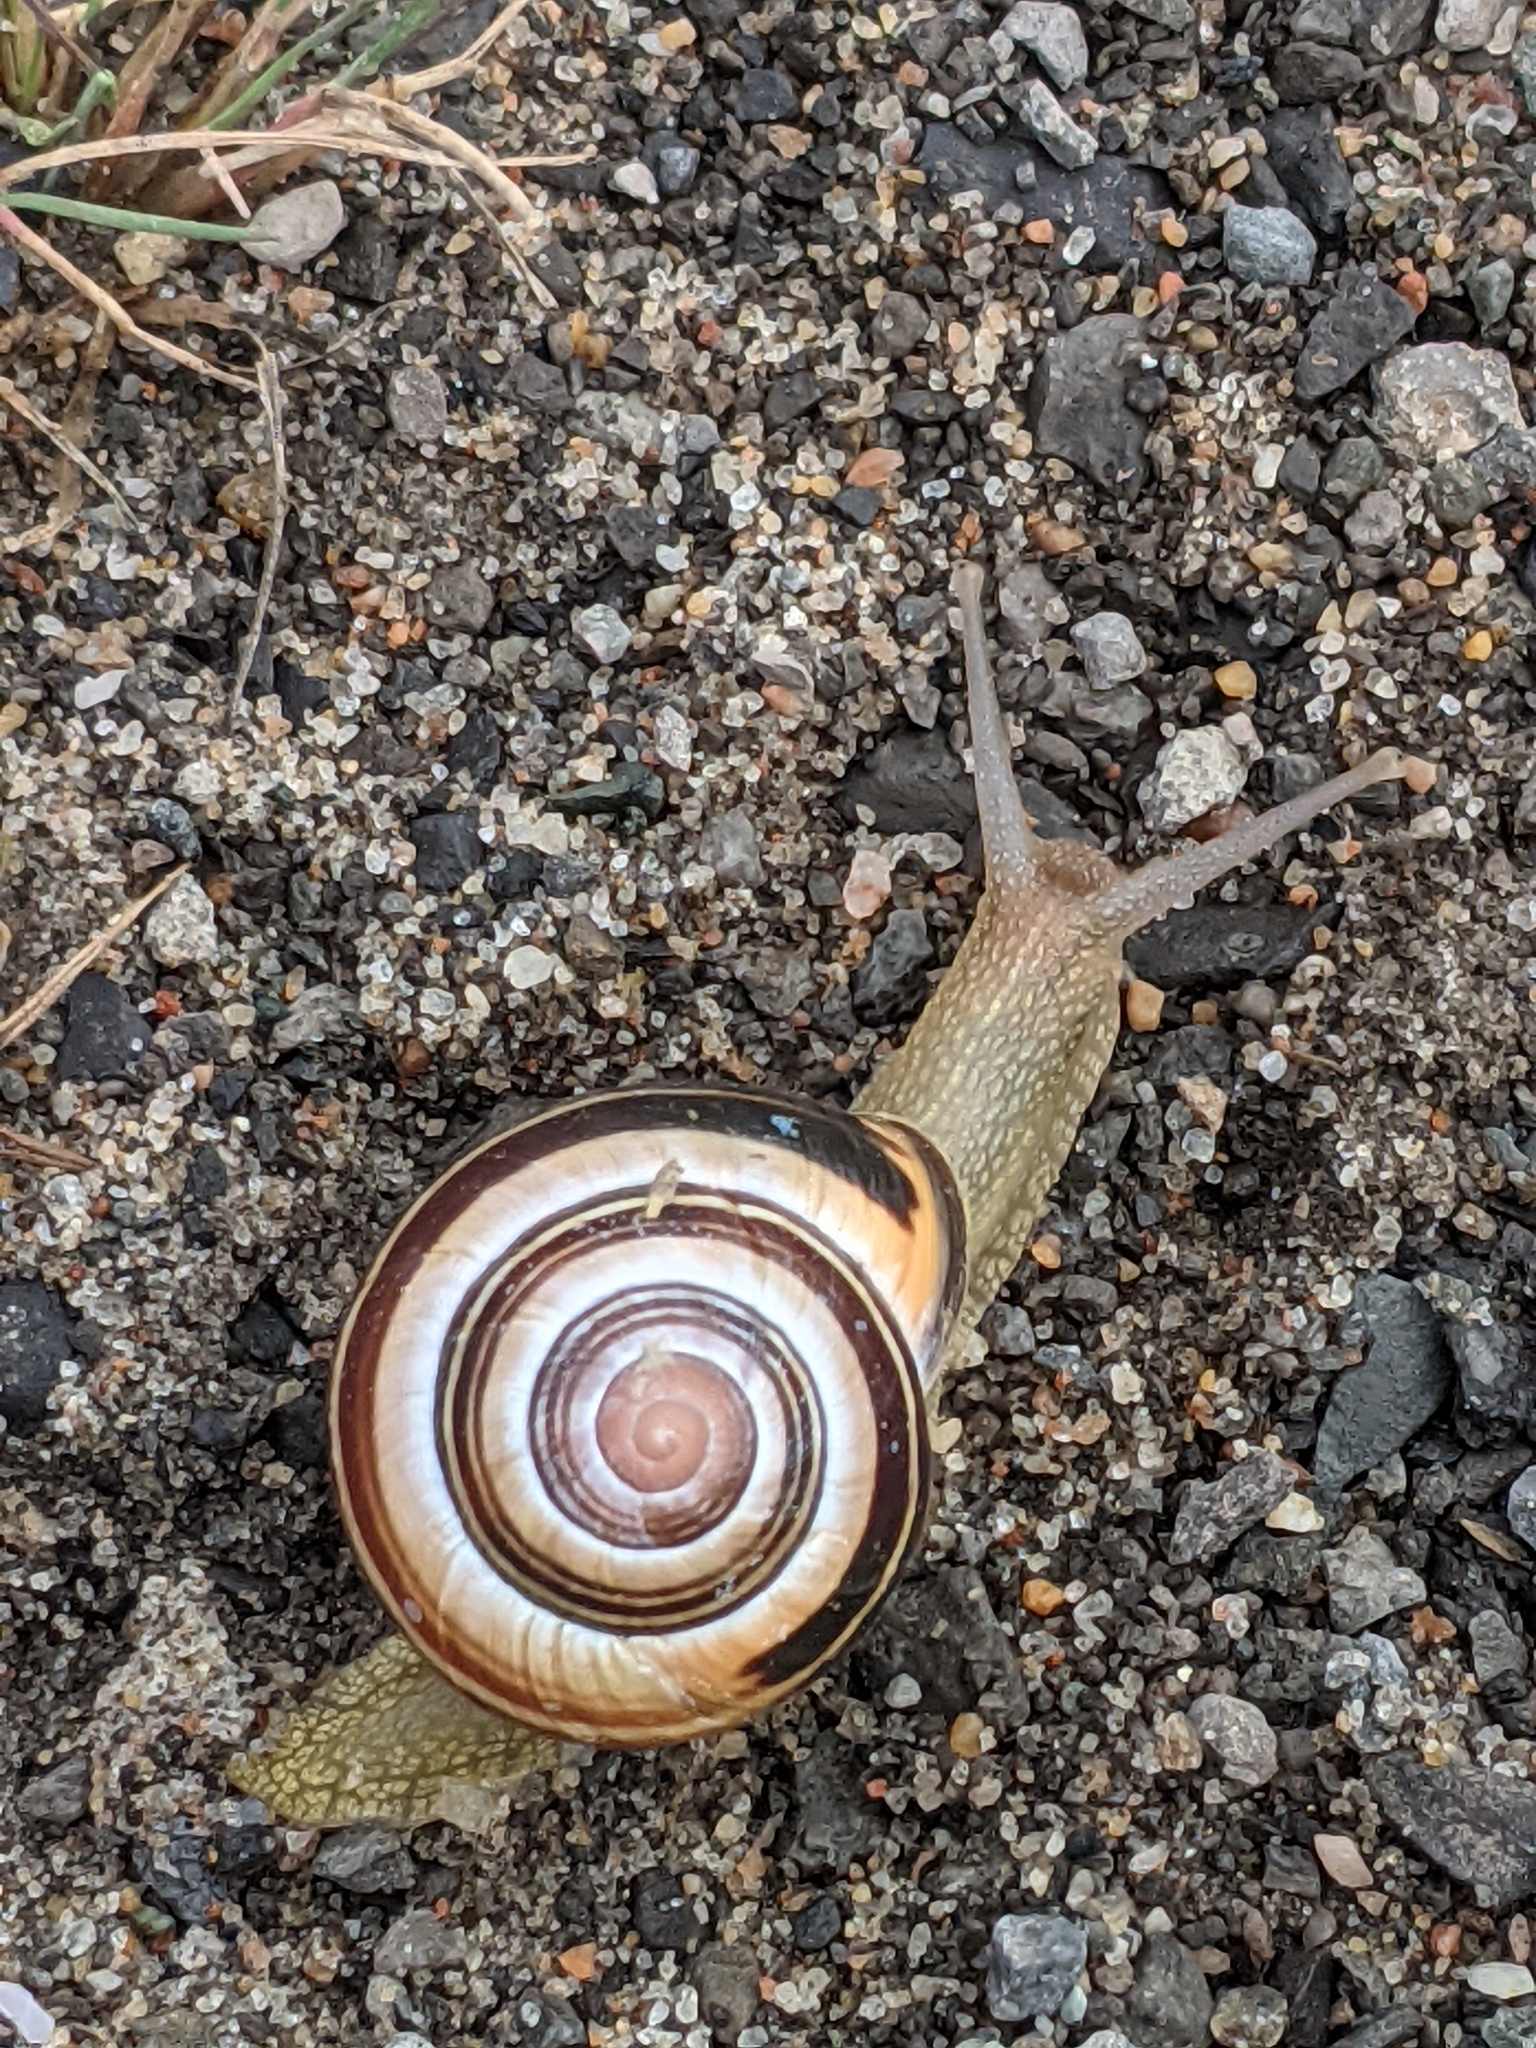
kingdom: Animalia
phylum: Mollusca
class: Gastropoda
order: Stylommatophora
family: Helicidae
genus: Cepaea
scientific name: Cepaea nemoralis
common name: Grovesnail
